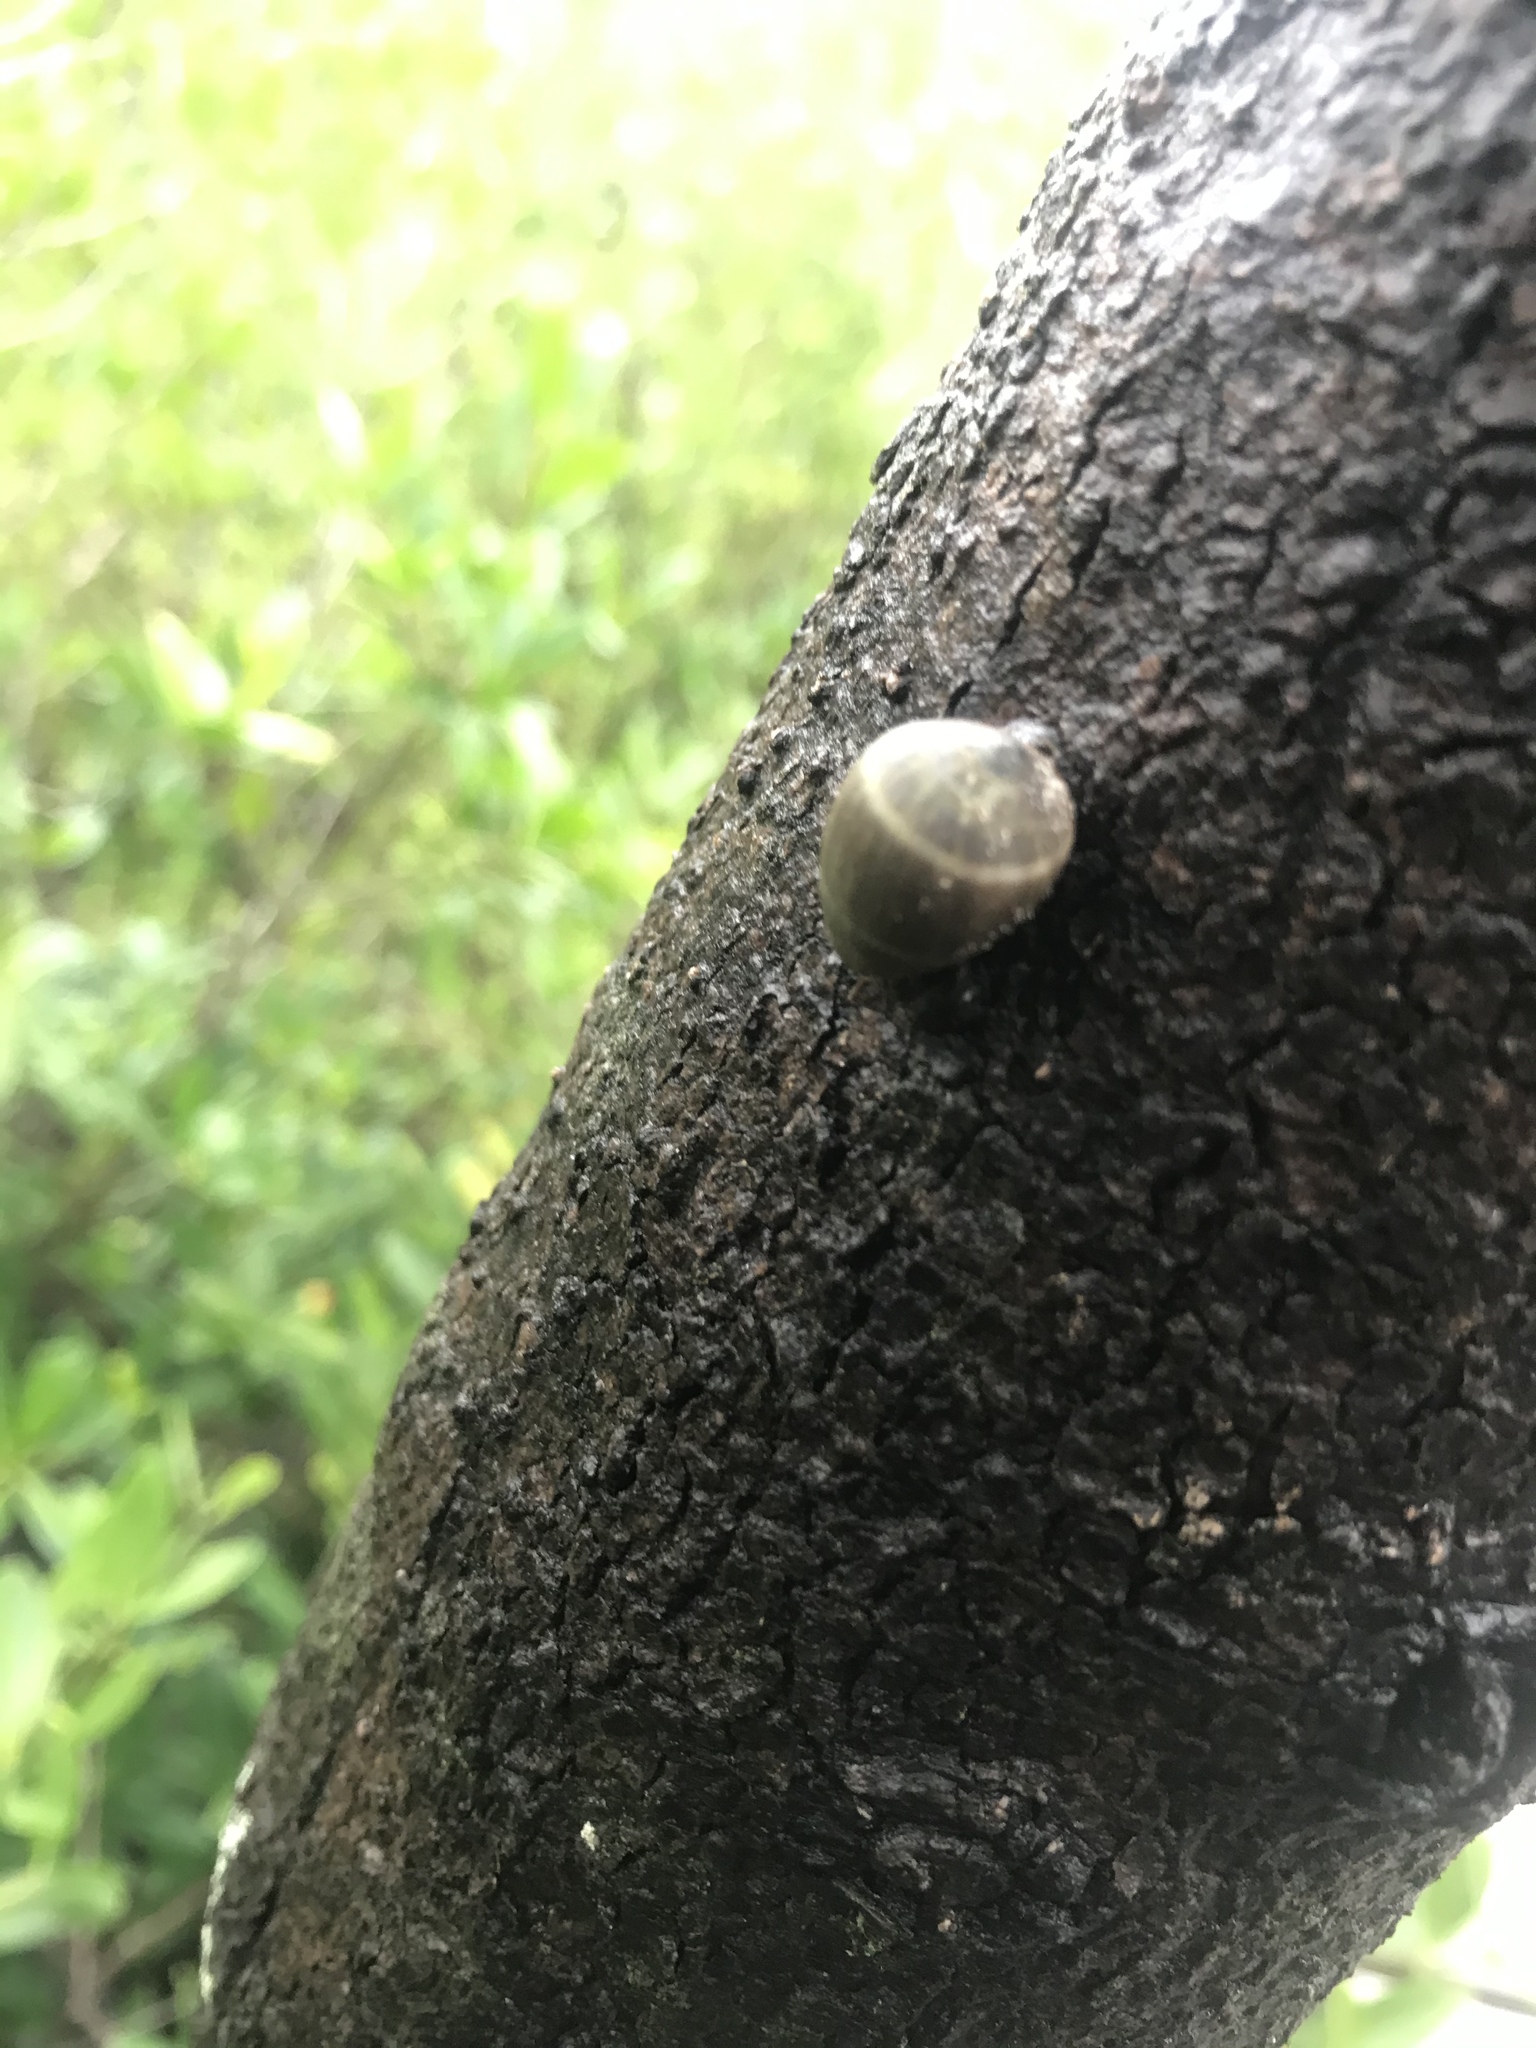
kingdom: Animalia
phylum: Mollusca
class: Gastropoda
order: Ellobiida
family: Ellobiidae
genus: Melampus
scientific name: Melampus coffea
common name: Coffee bean snail
